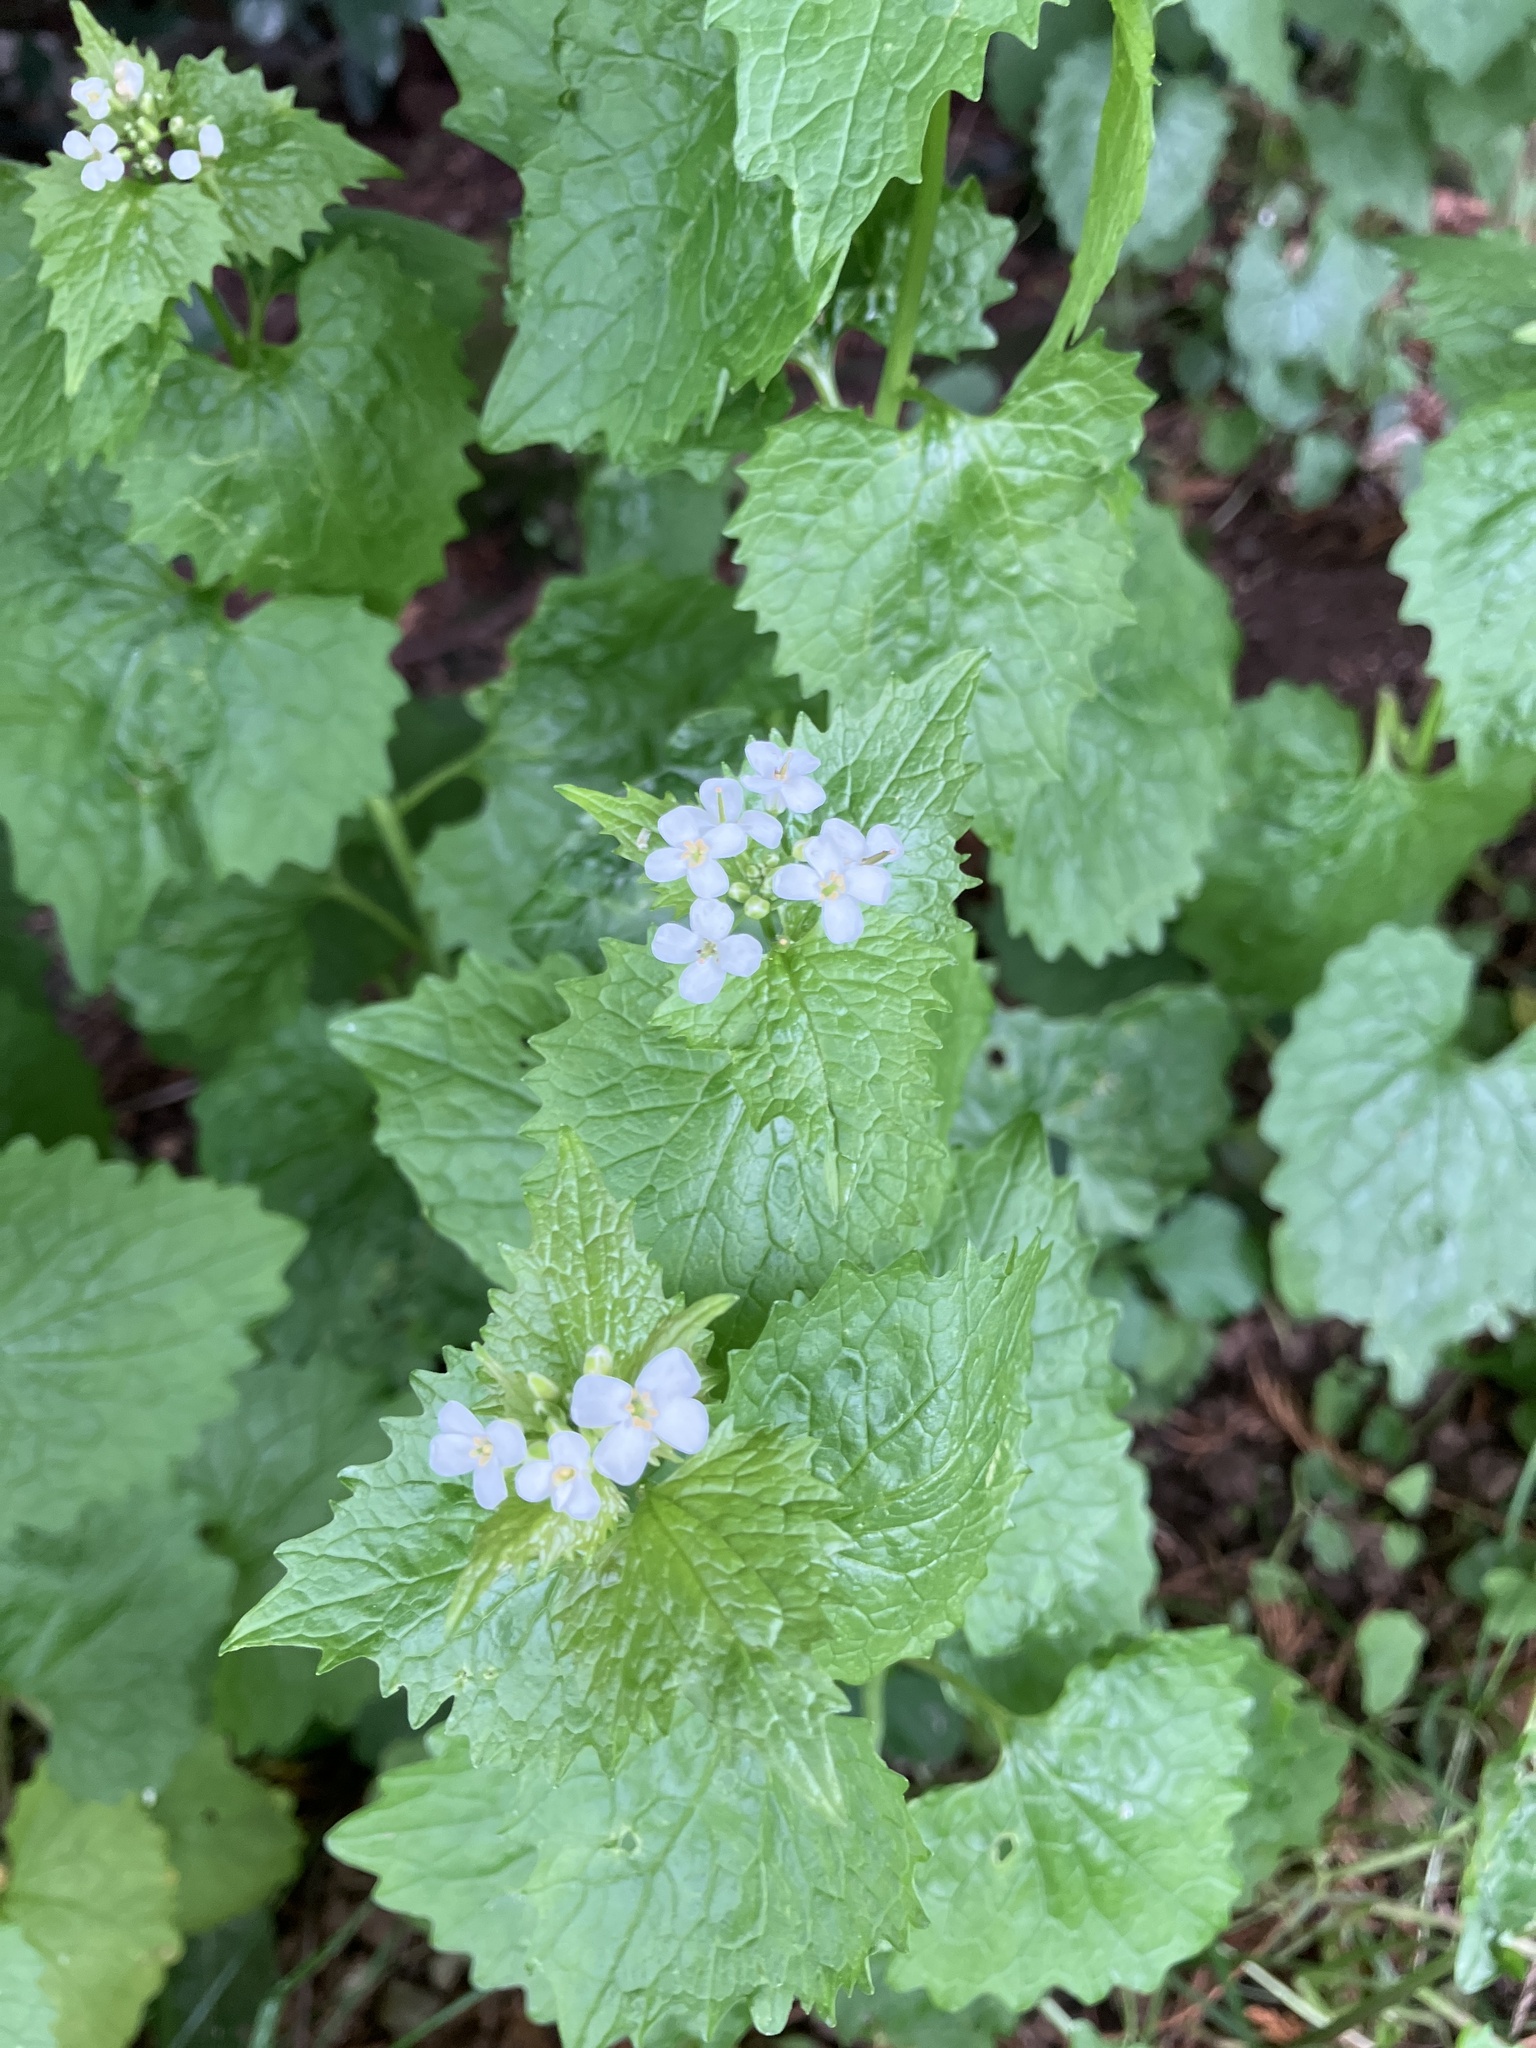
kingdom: Plantae
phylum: Tracheophyta
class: Magnoliopsida
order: Brassicales
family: Brassicaceae
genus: Alliaria
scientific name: Alliaria petiolata
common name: Garlic mustard
